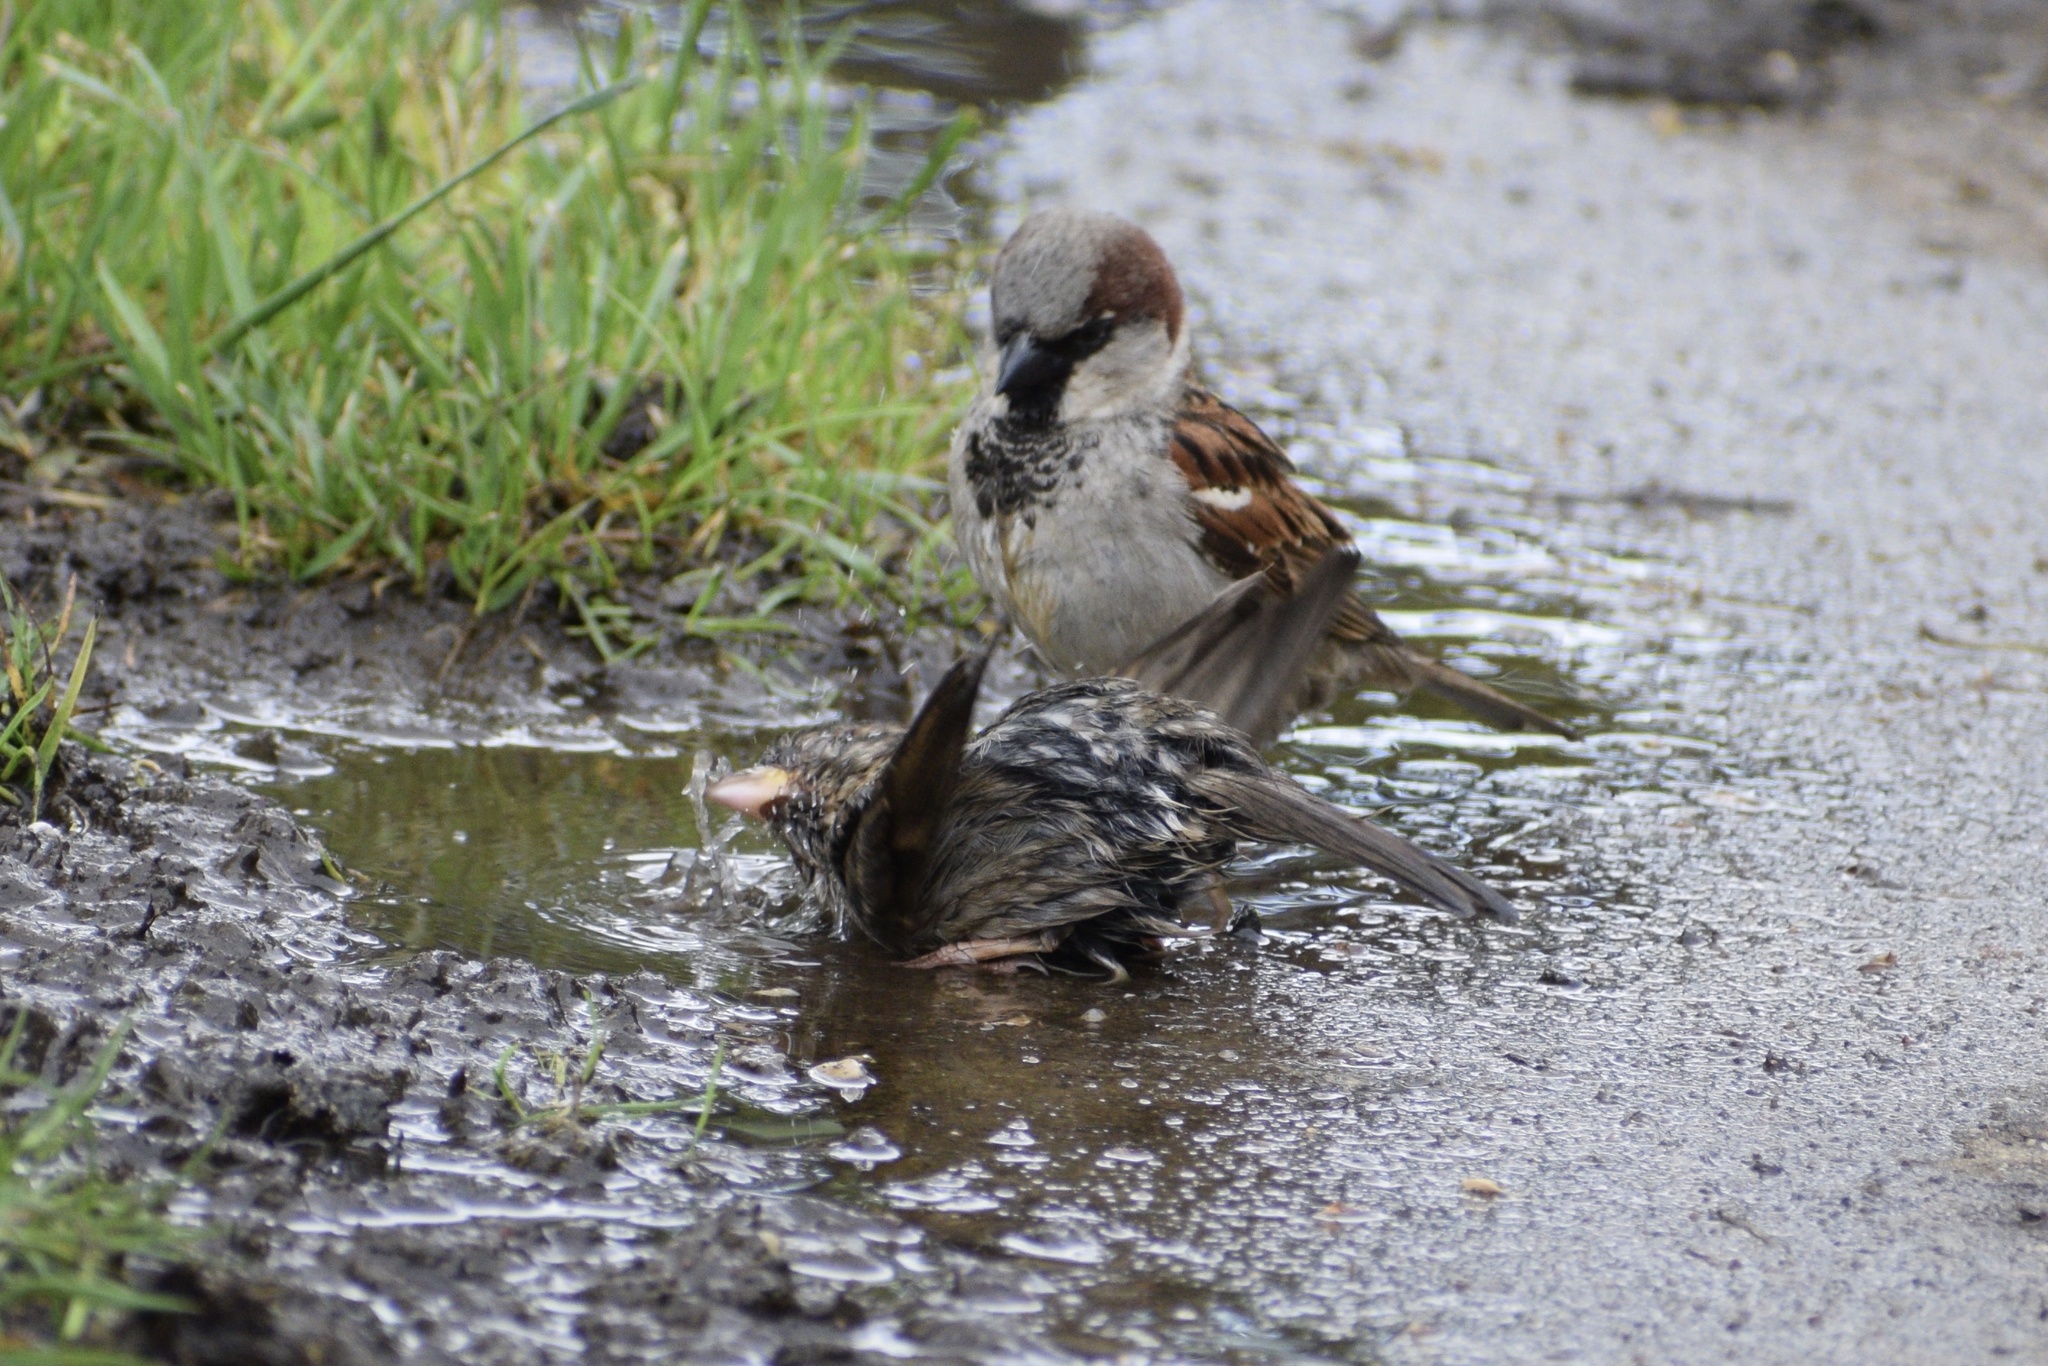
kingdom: Animalia
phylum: Chordata
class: Aves
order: Passeriformes
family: Passeridae
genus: Passer
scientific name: Passer domesticus
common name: House sparrow
